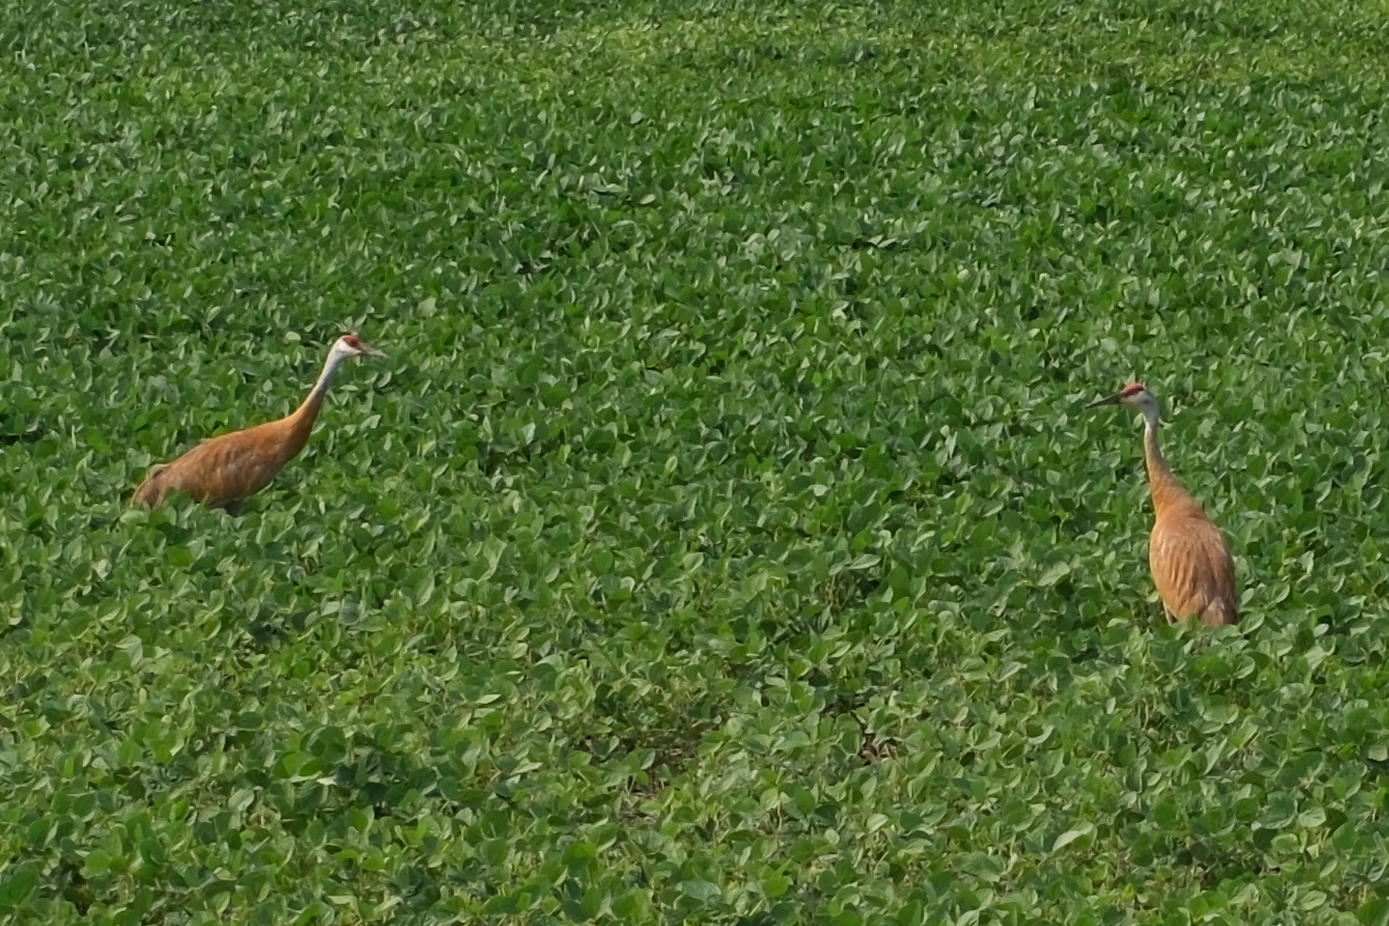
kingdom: Animalia
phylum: Chordata
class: Aves
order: Gruiformes
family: Gruidae
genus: Grus
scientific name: Grus canadensis
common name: Sandhill crane
